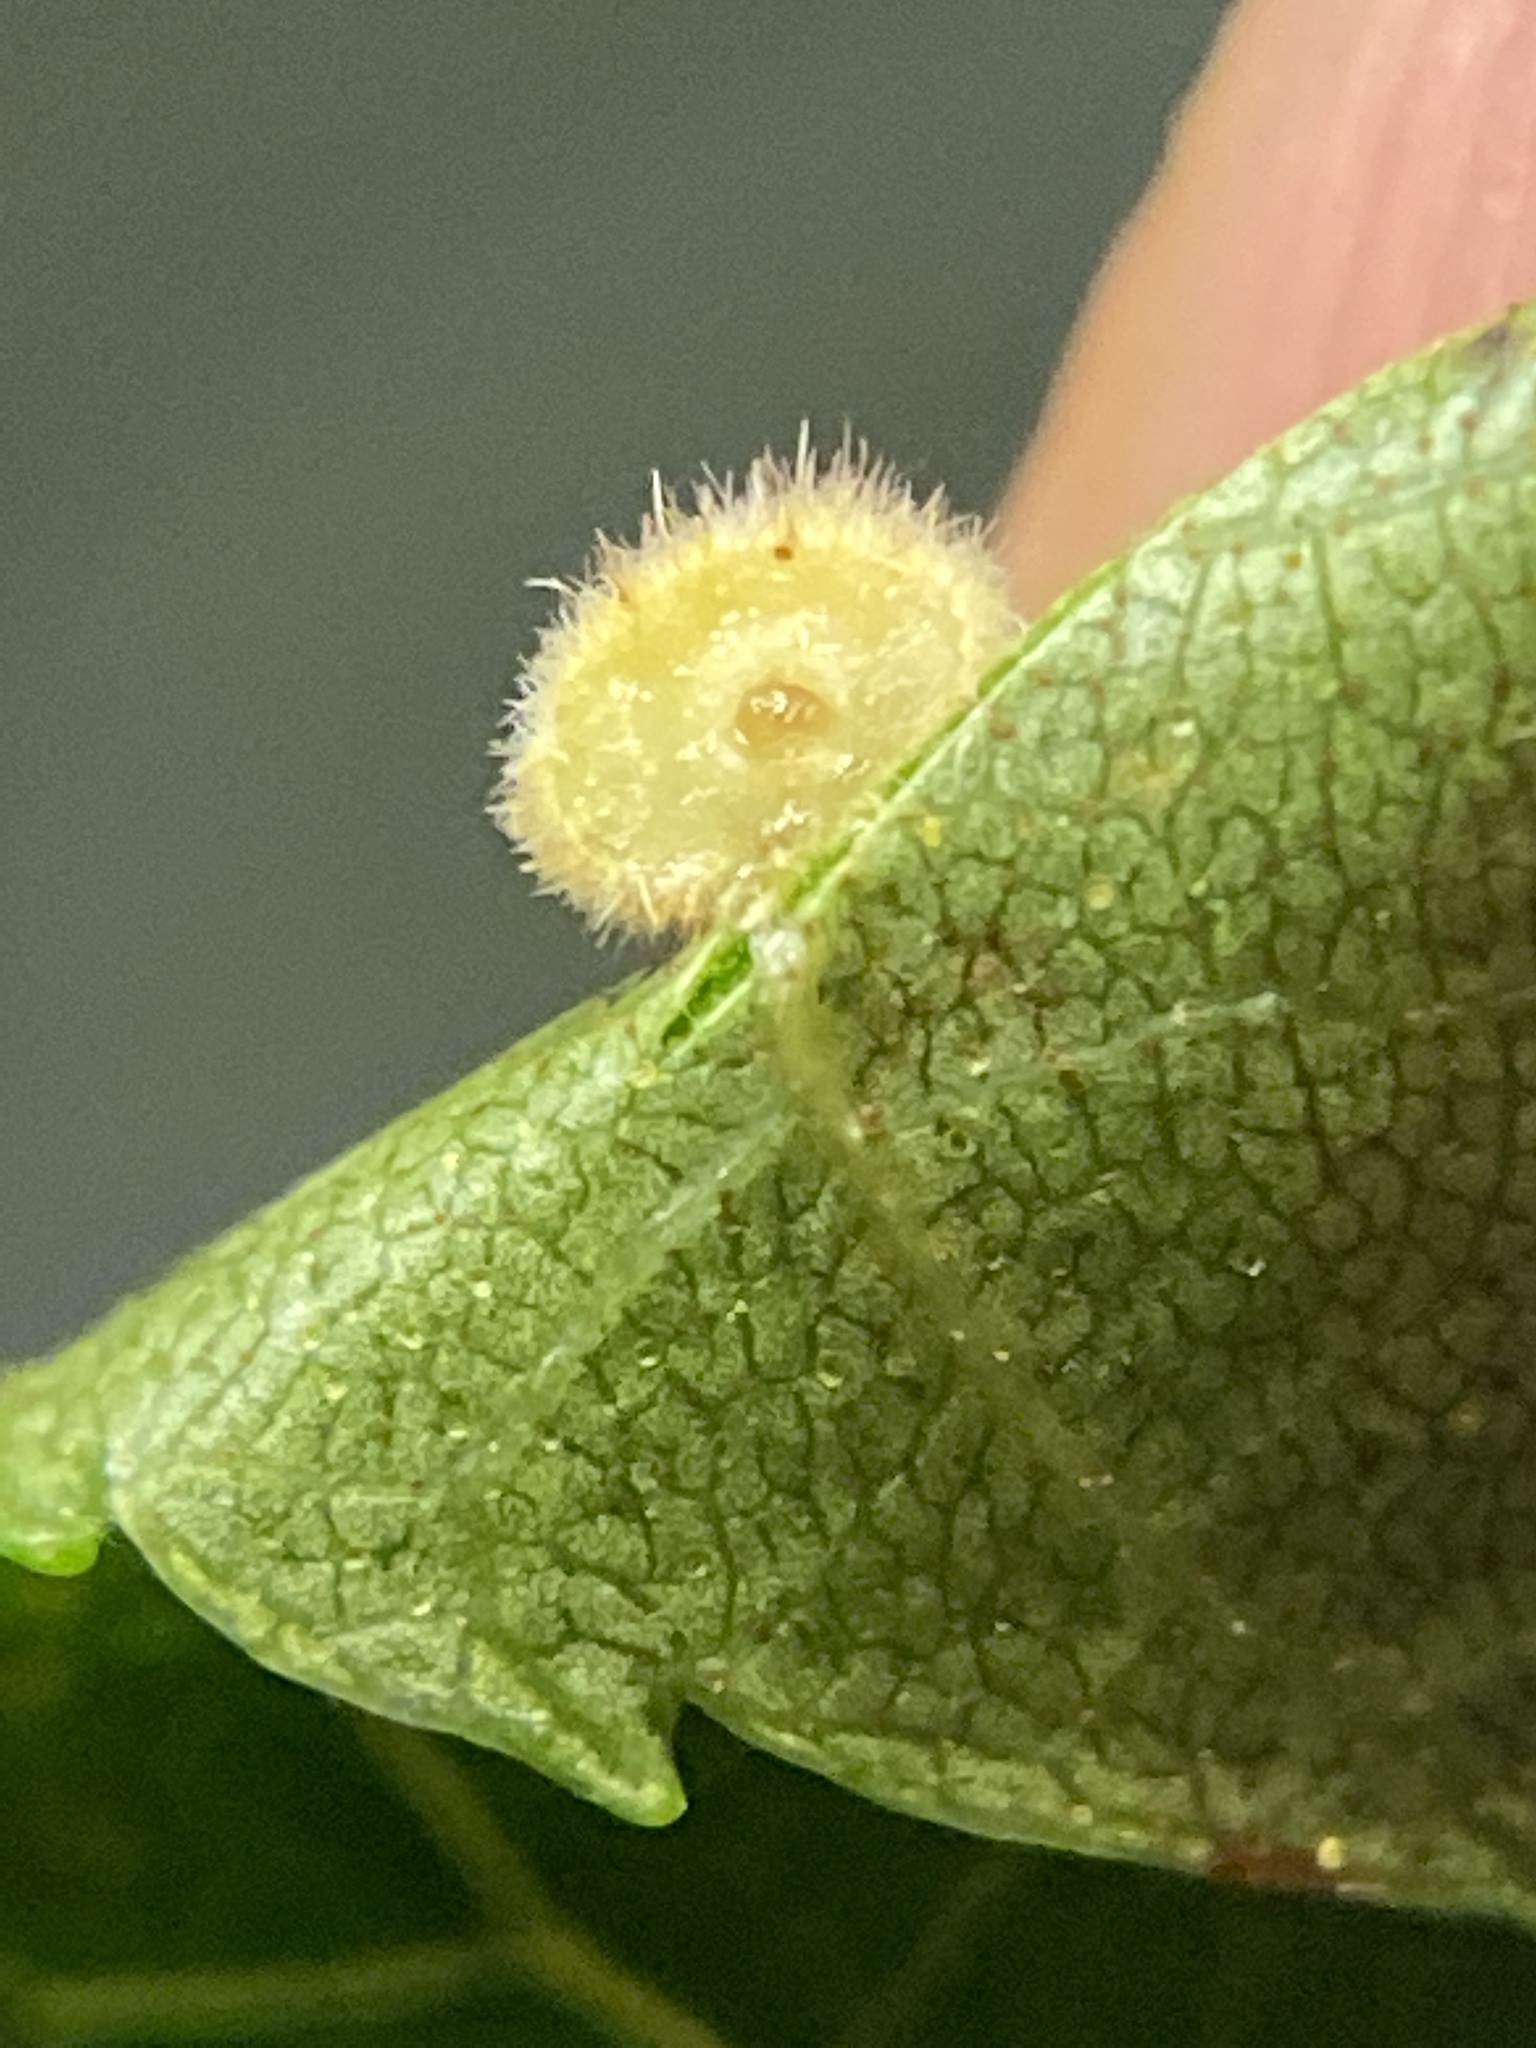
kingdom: Animalia
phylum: Arthropoda
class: Insecta
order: Diptera
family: Cecidomyiidae
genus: Caryomyia
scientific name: Caryomyia persicoides
